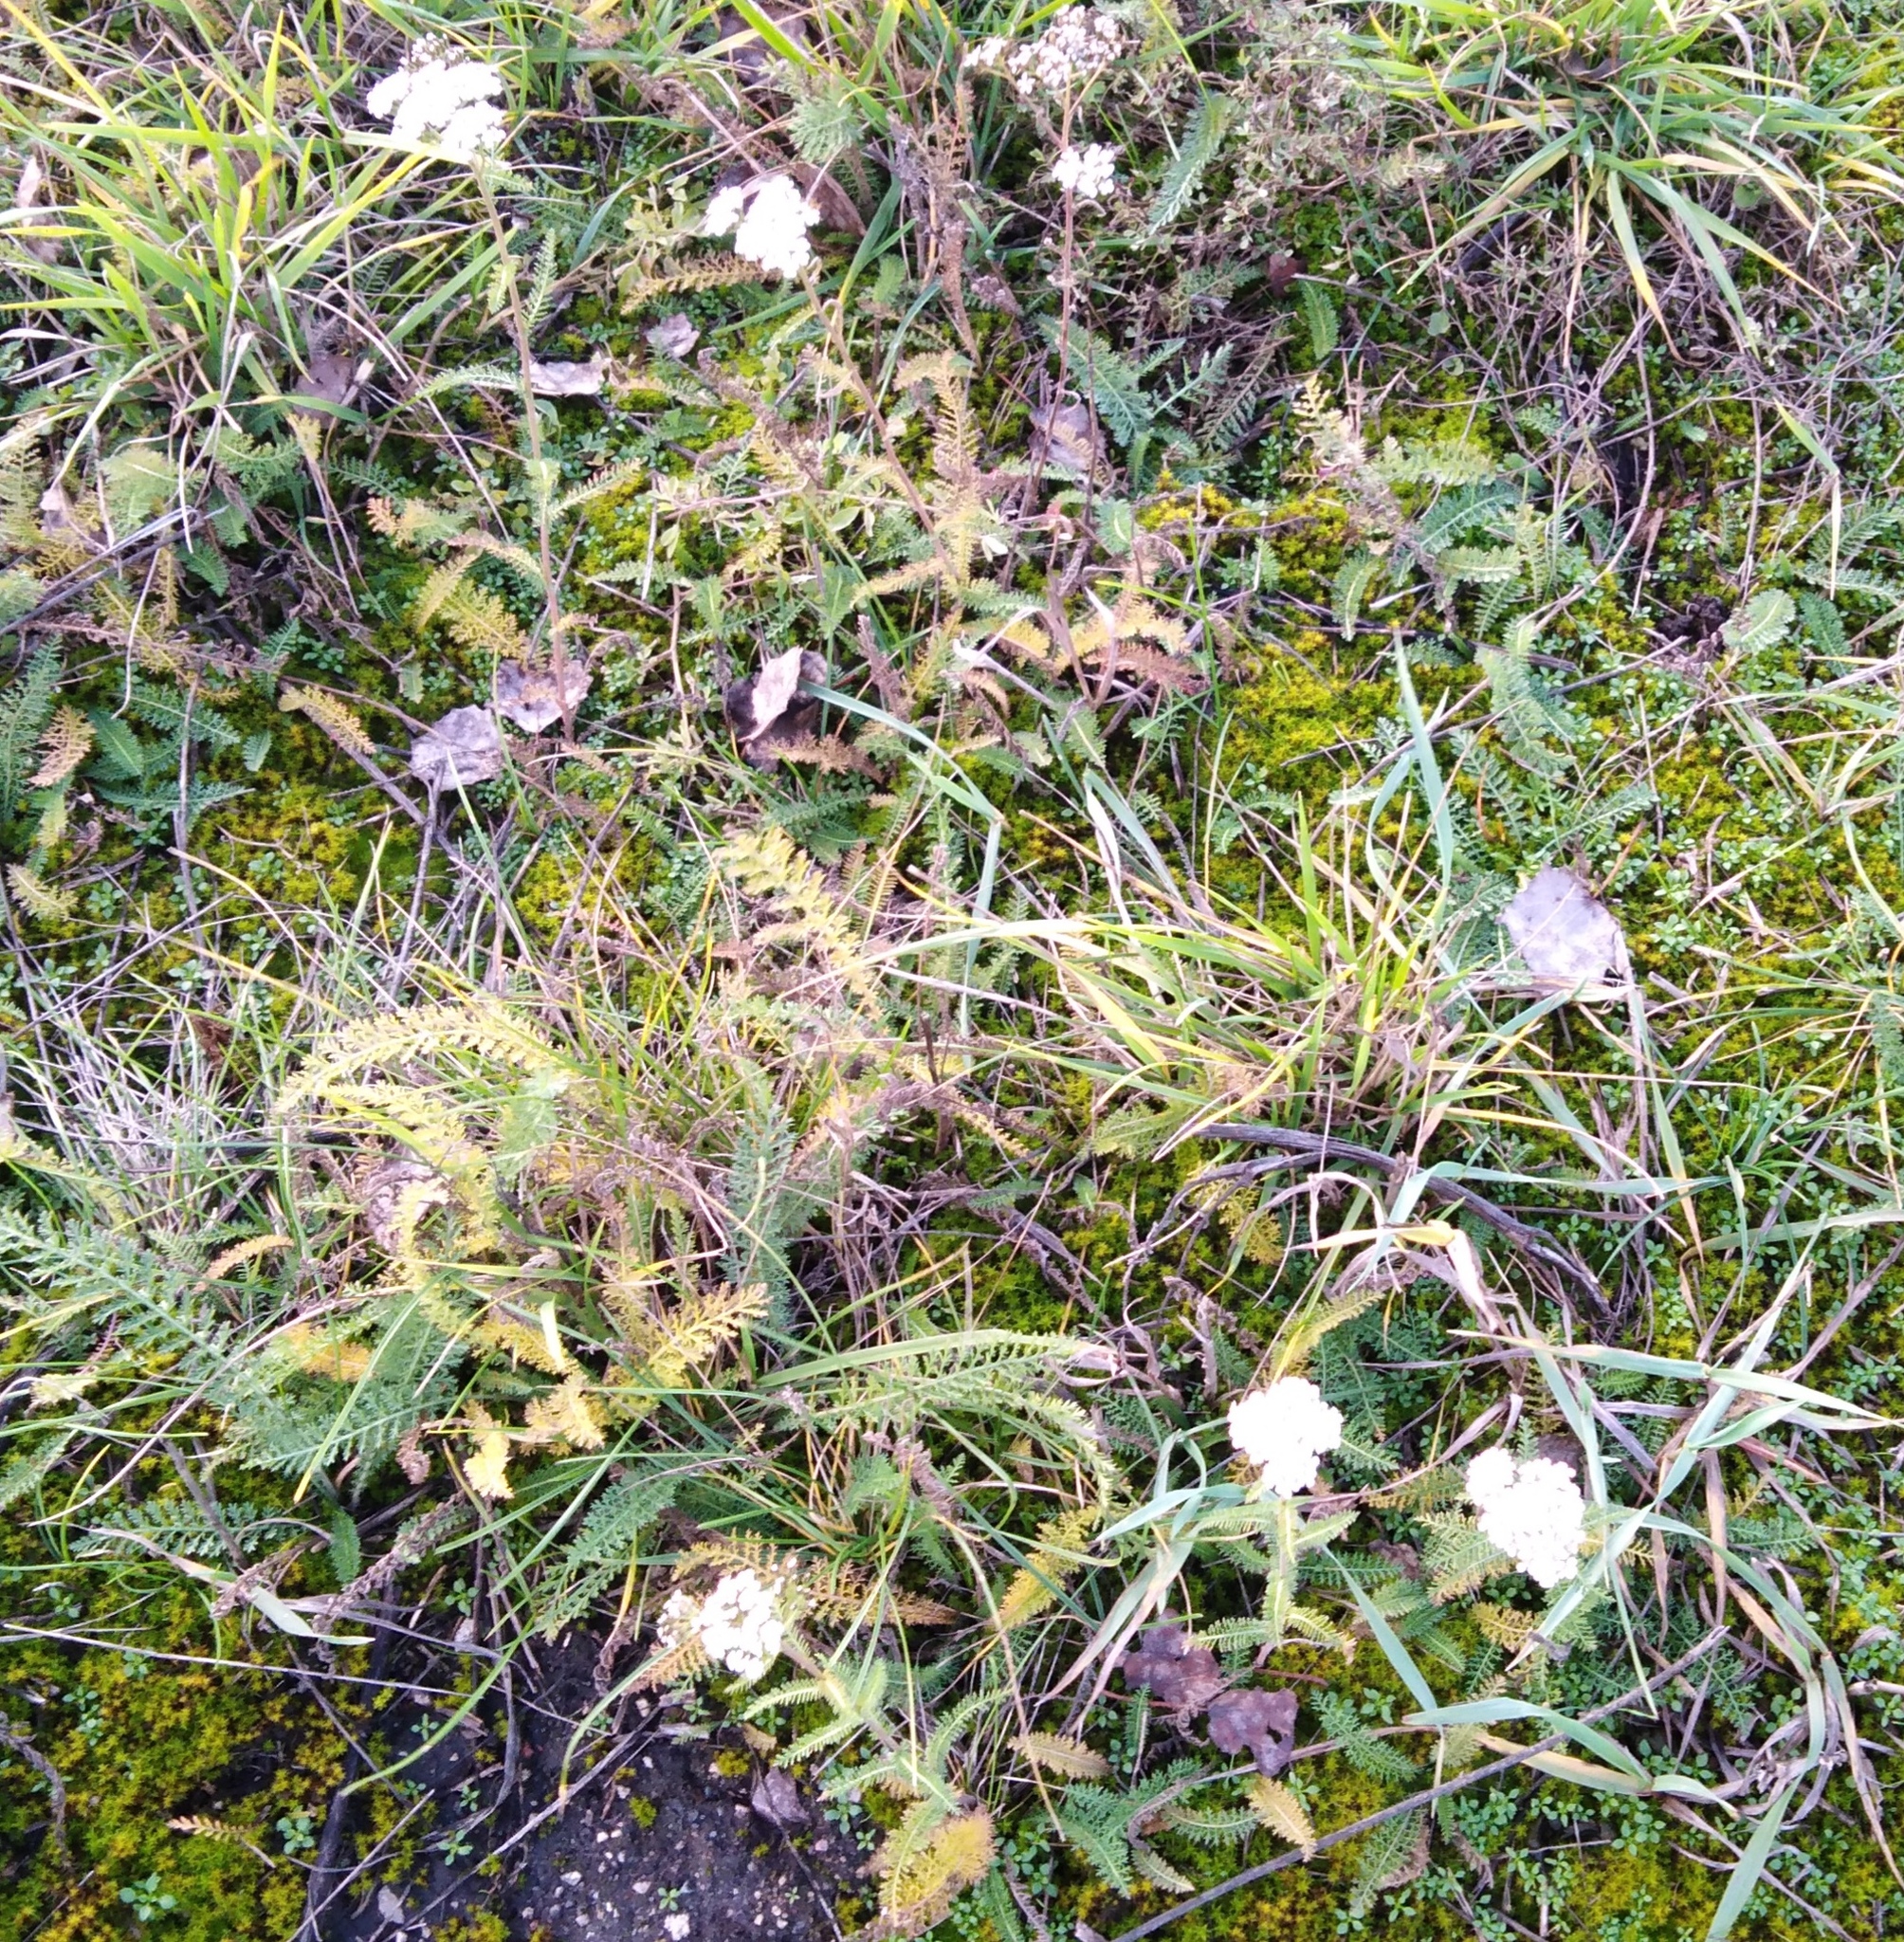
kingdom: Plantae
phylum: Tracheophyta
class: Magnoliopsida
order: Asterales
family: Asteraceae
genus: Achillea
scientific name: Achillea millefolium
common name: Yarrow
